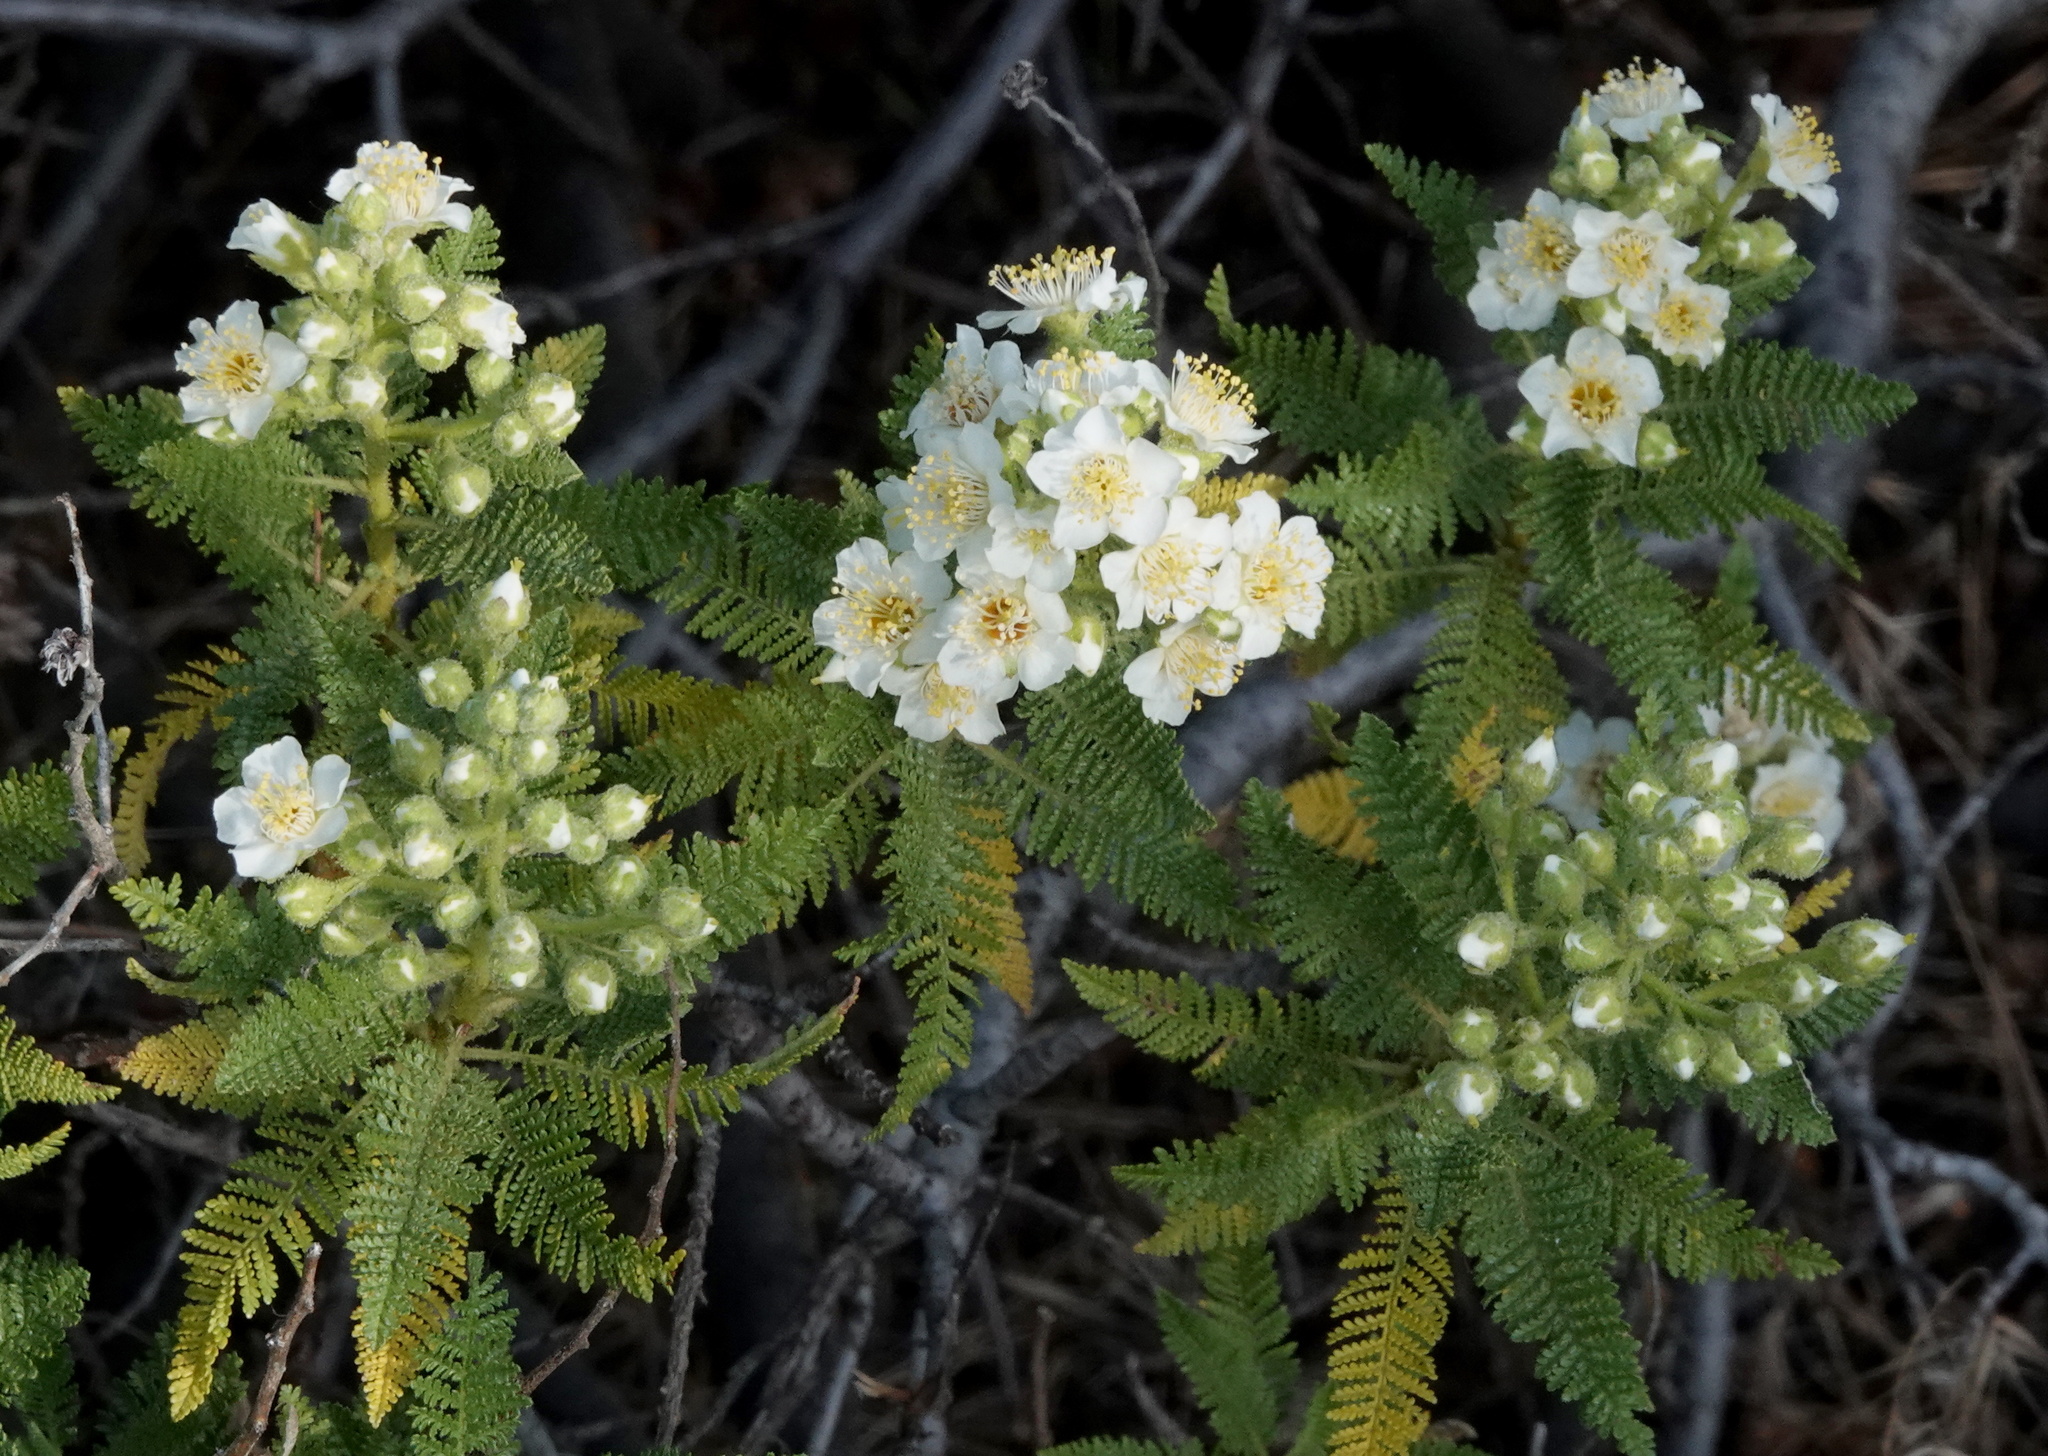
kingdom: Plantae
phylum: Tracheophyta
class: Magnoliopsida
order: Rosales
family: Rosaceae
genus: Chamaebatiaria
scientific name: Chamaebatiaria millefolium
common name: Fernbush
